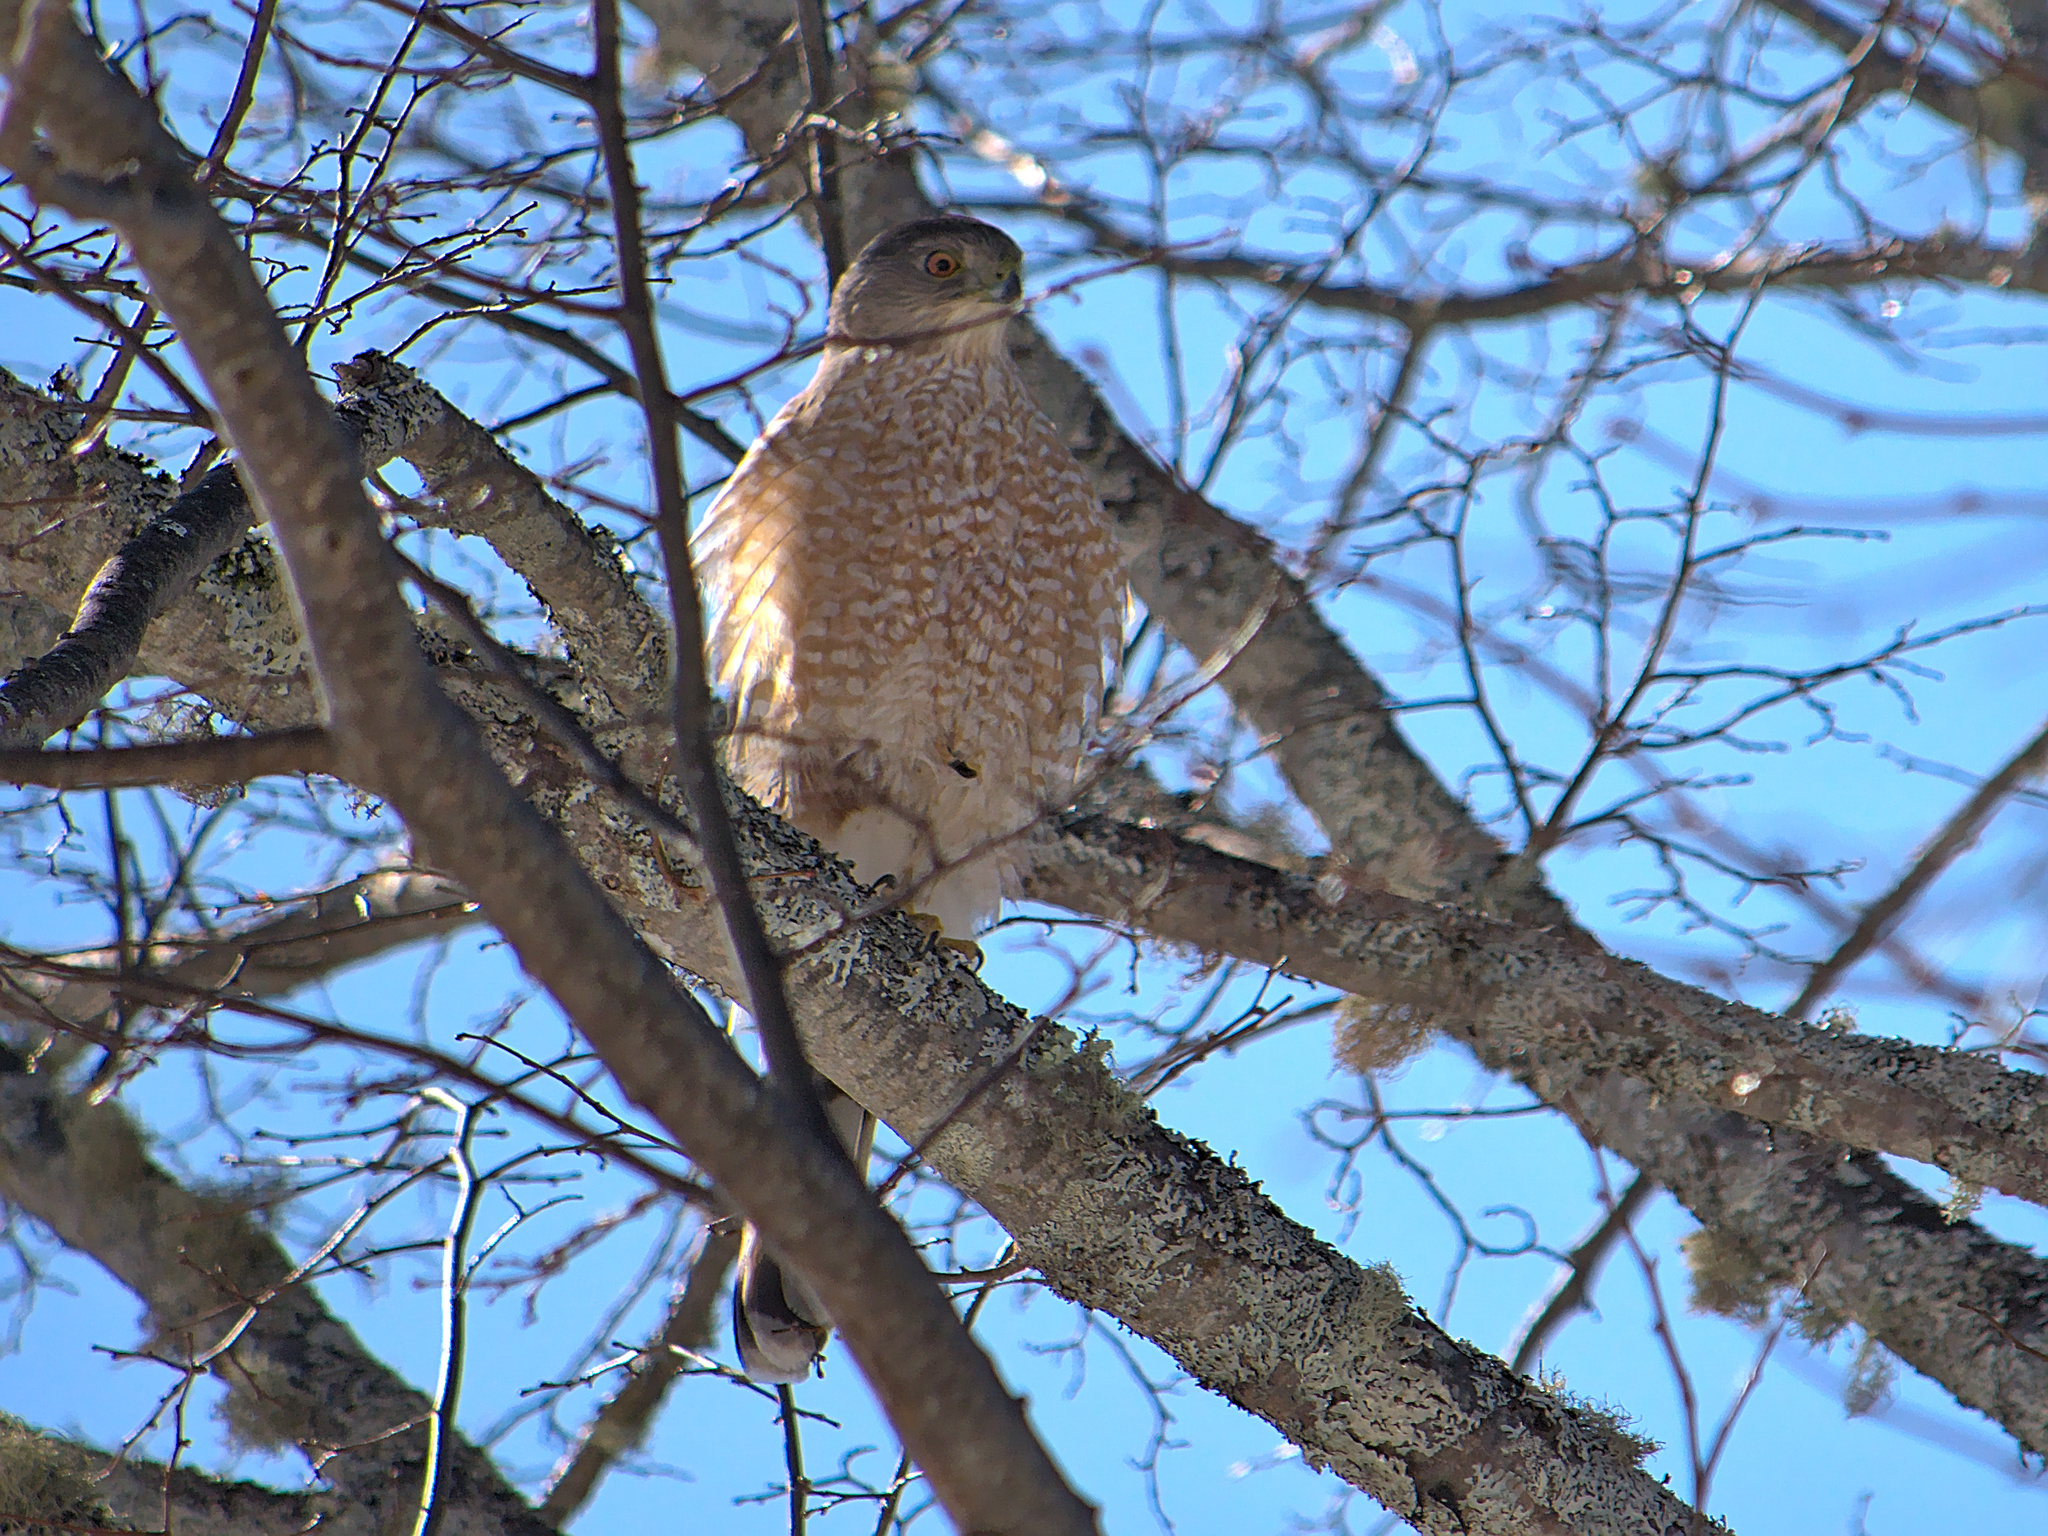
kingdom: Animalia
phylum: Chordata
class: Aves
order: Accipitriformes
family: Accipitridae
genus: Accipiter
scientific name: Accipiter cooperii
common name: Cooper's hawk
